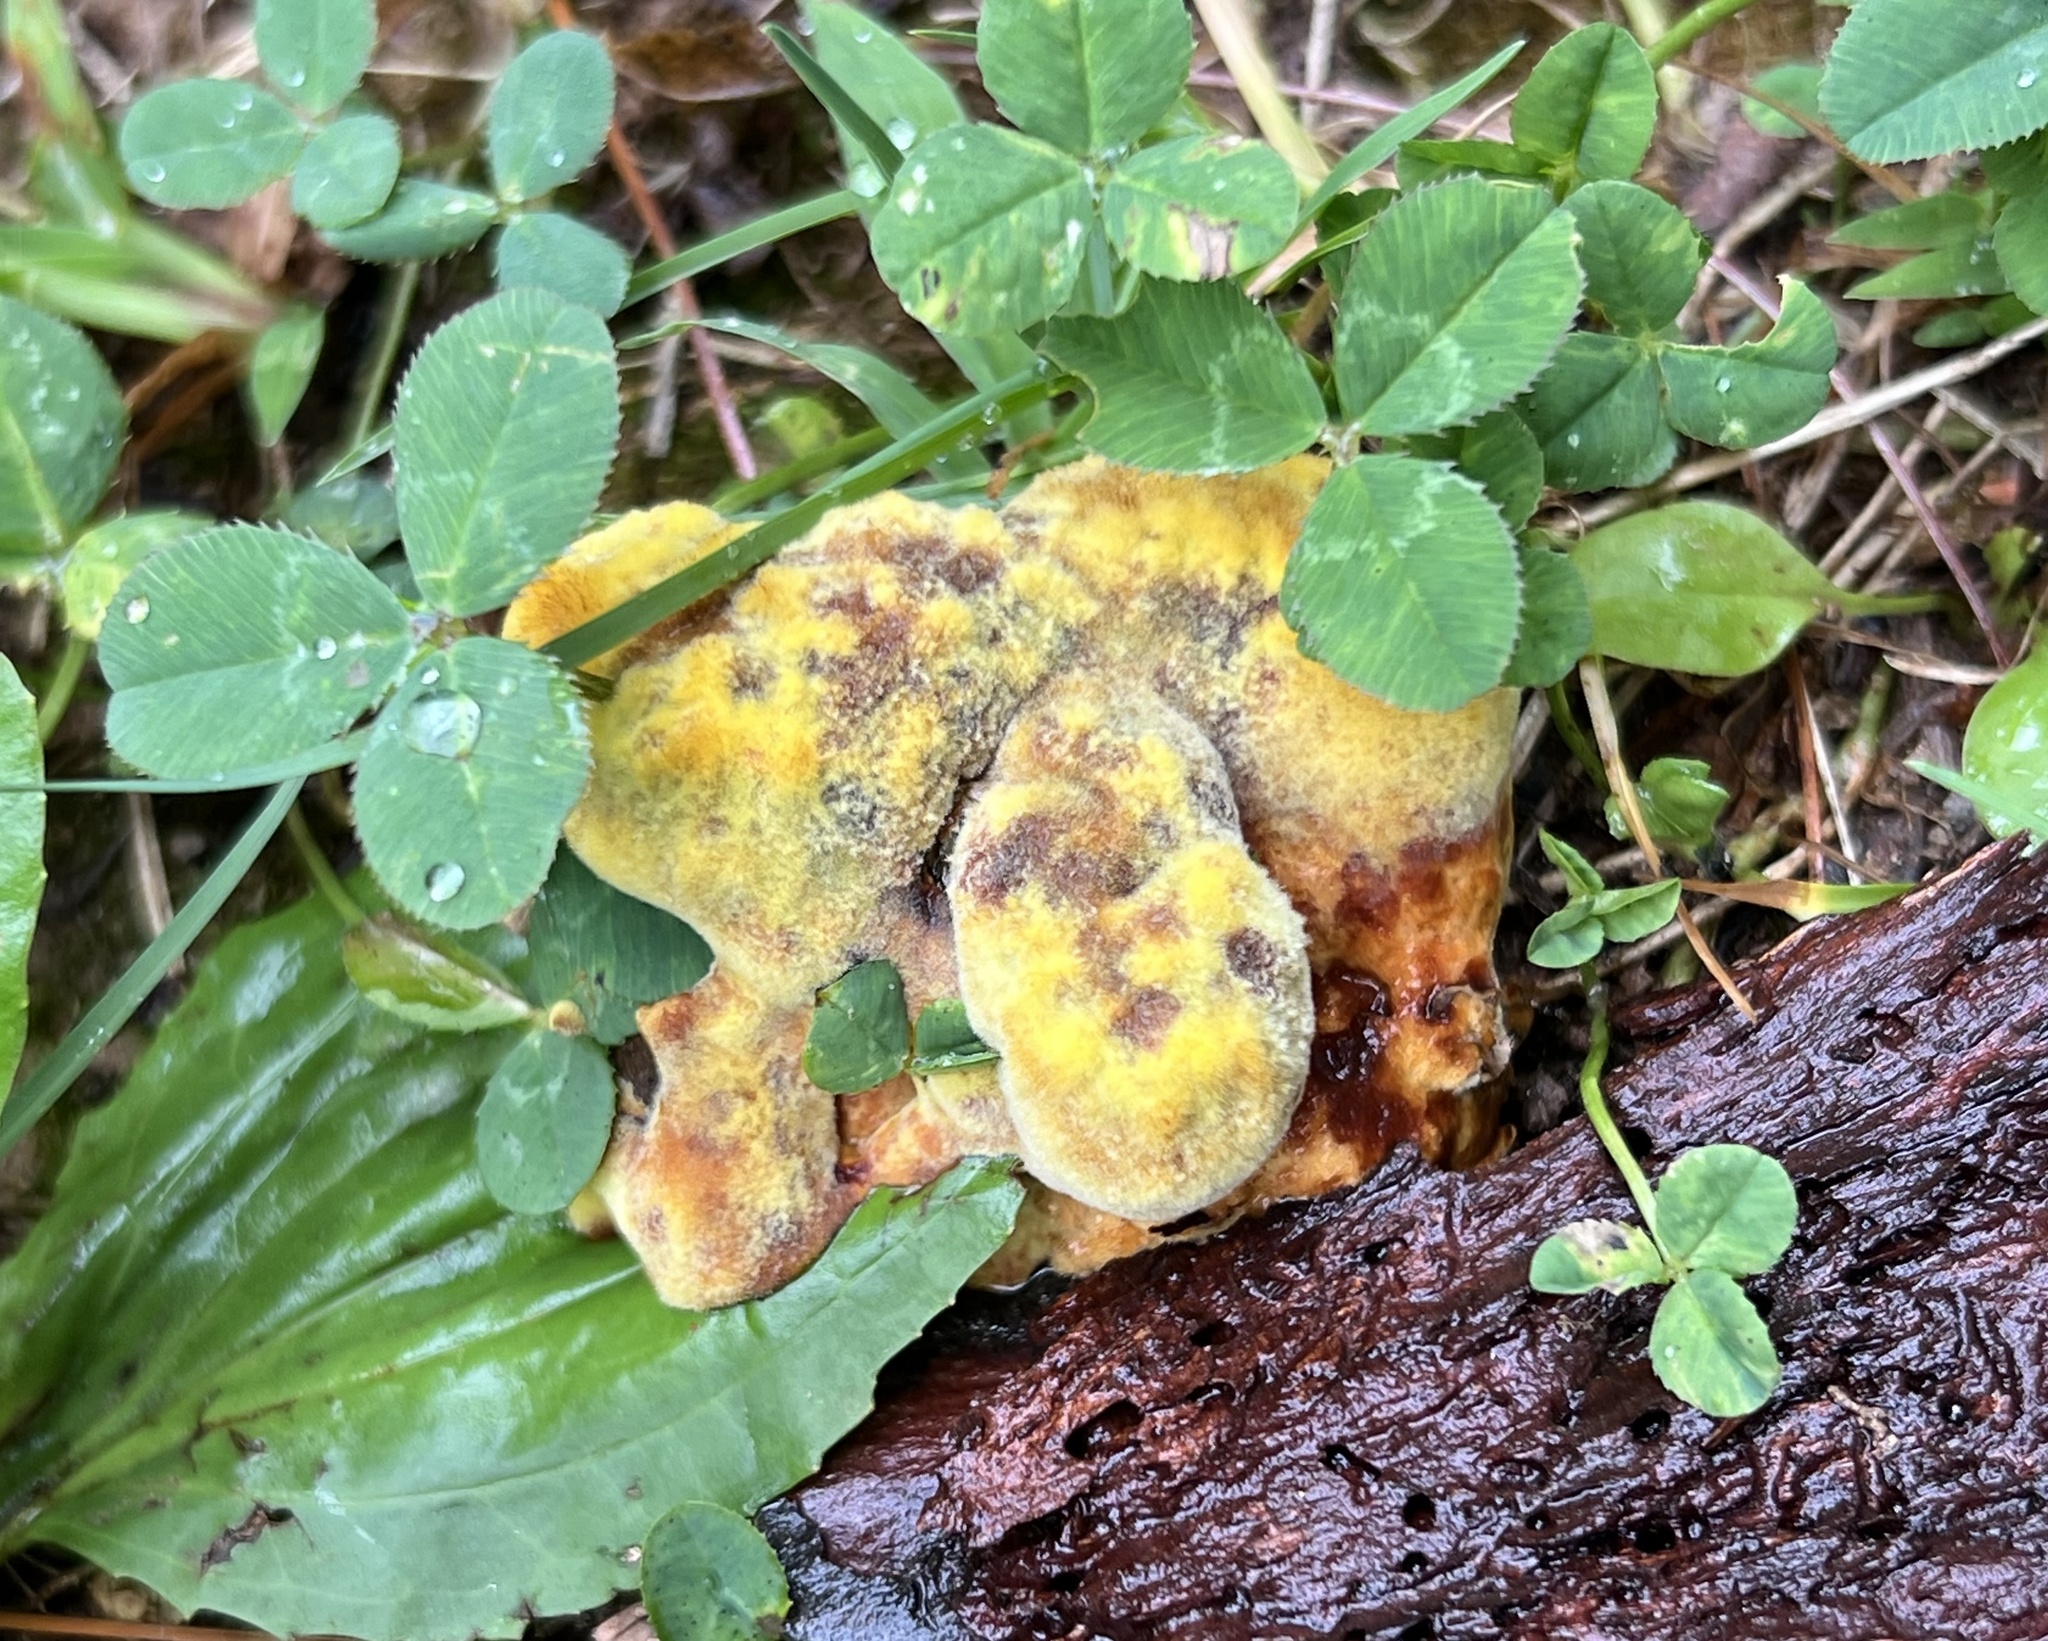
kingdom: Fungi
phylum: Basidiomycota
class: Agaricomycetes
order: Polyporales
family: Laetiporaceae
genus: Phaeolus
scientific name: Phaeolus schweinitzii
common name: Dyer's mazegill
